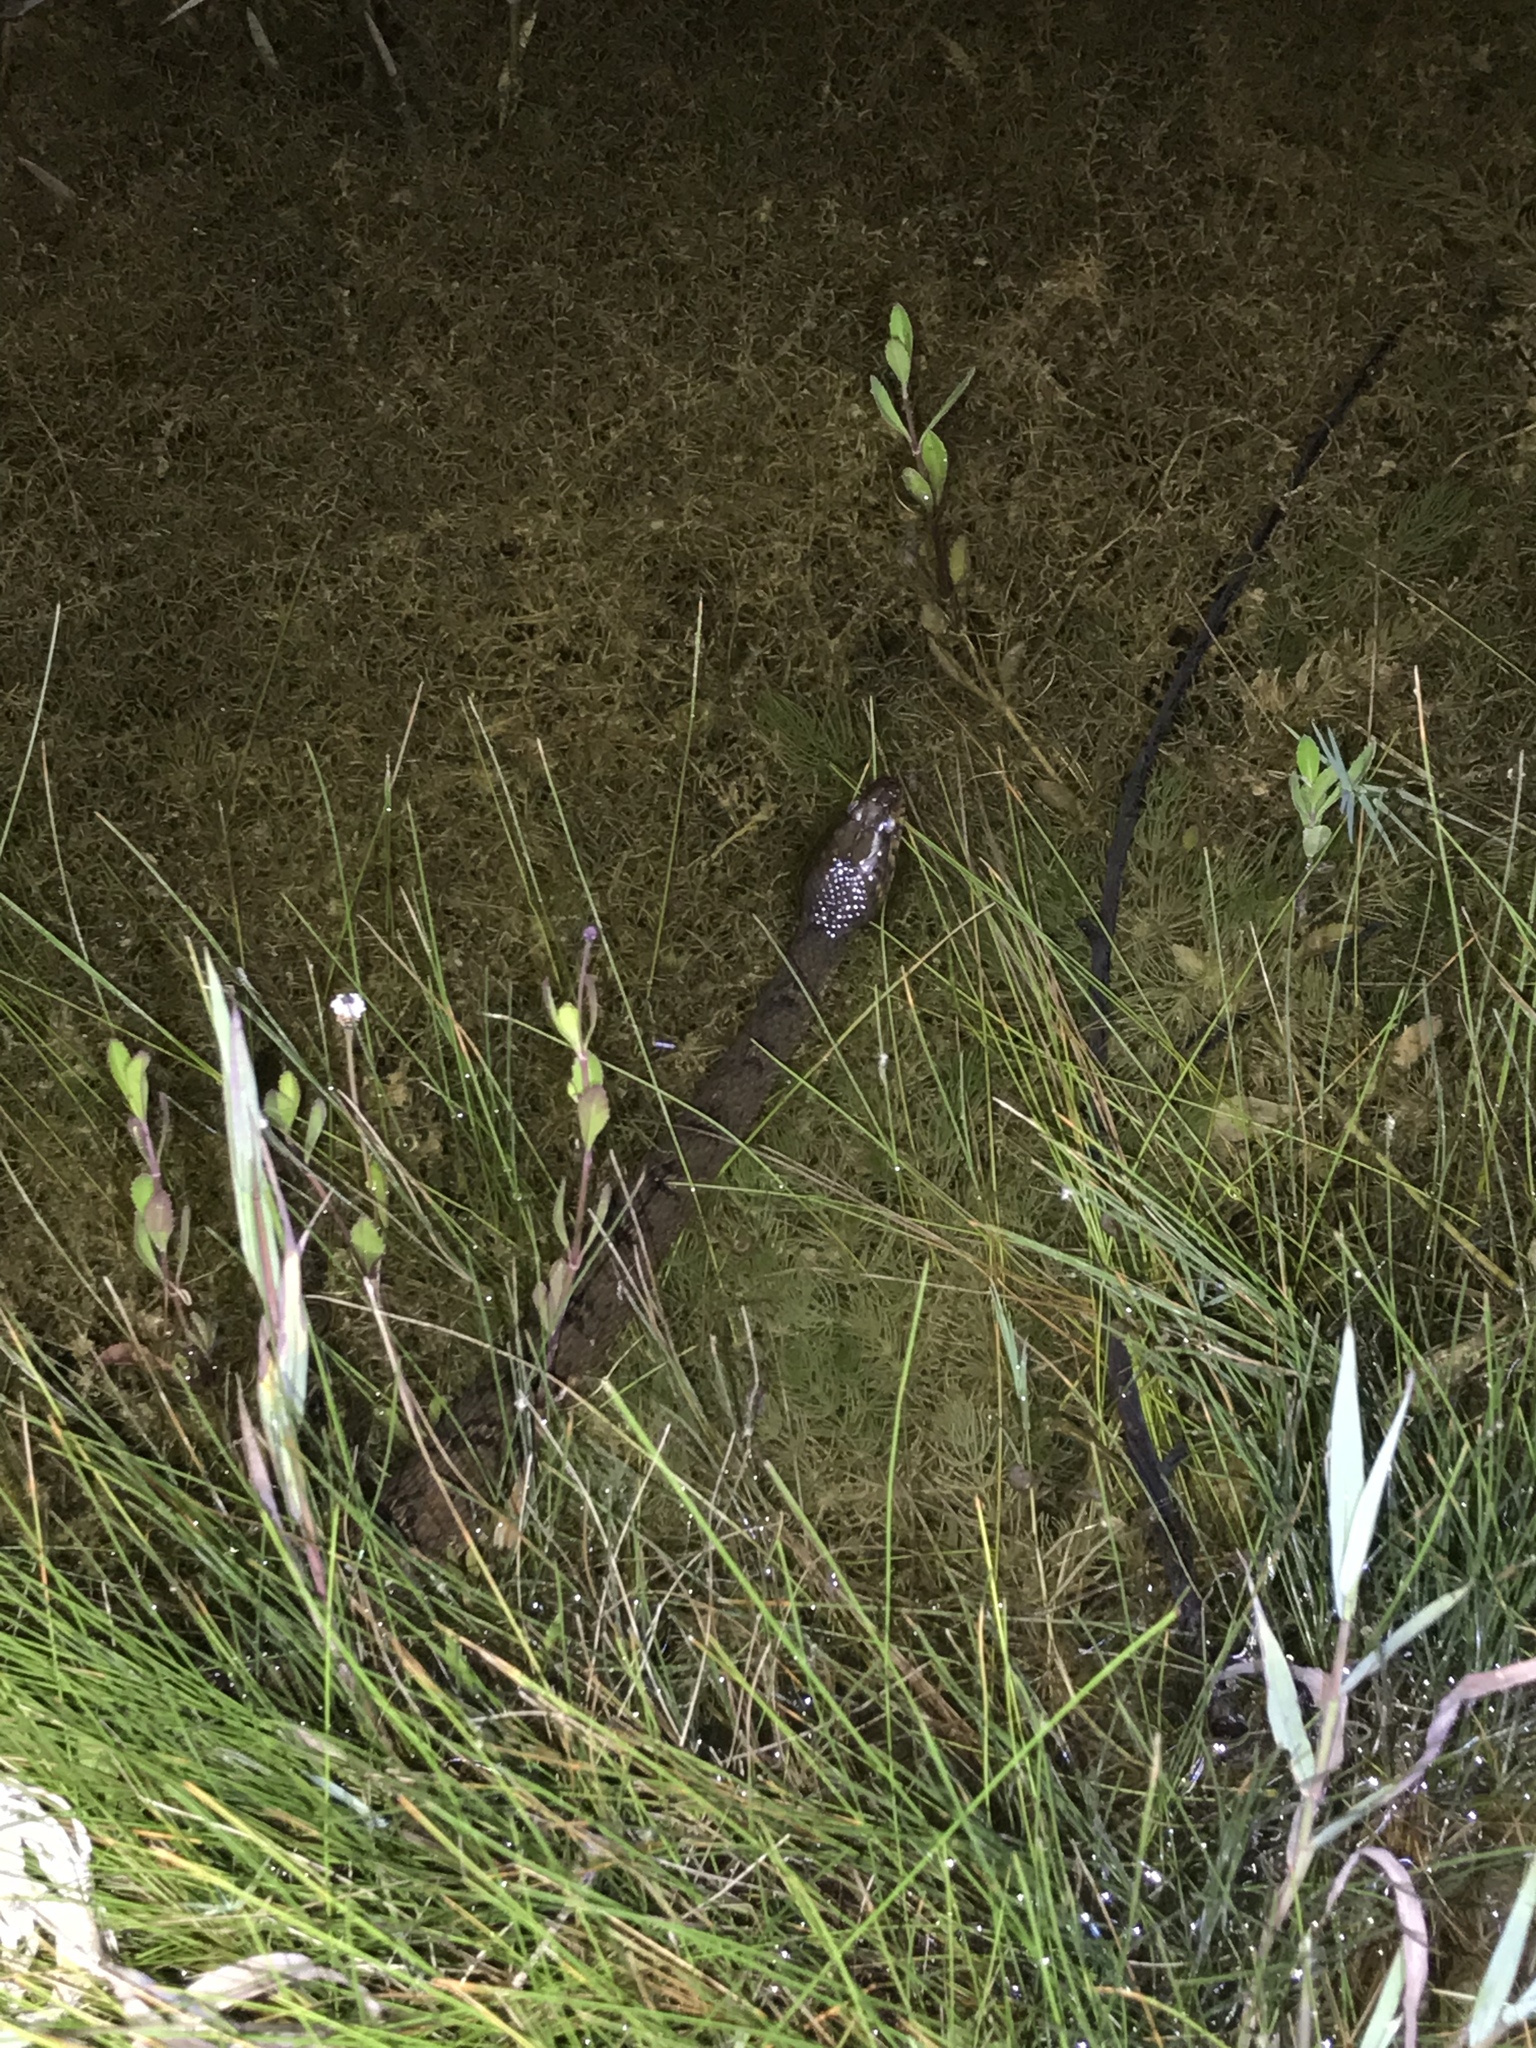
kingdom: Animalia
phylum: Chordata
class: Squamata
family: Colubridae
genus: Nerodia
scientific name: Nerodia erythrogaster
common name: Plainbelly water snake
